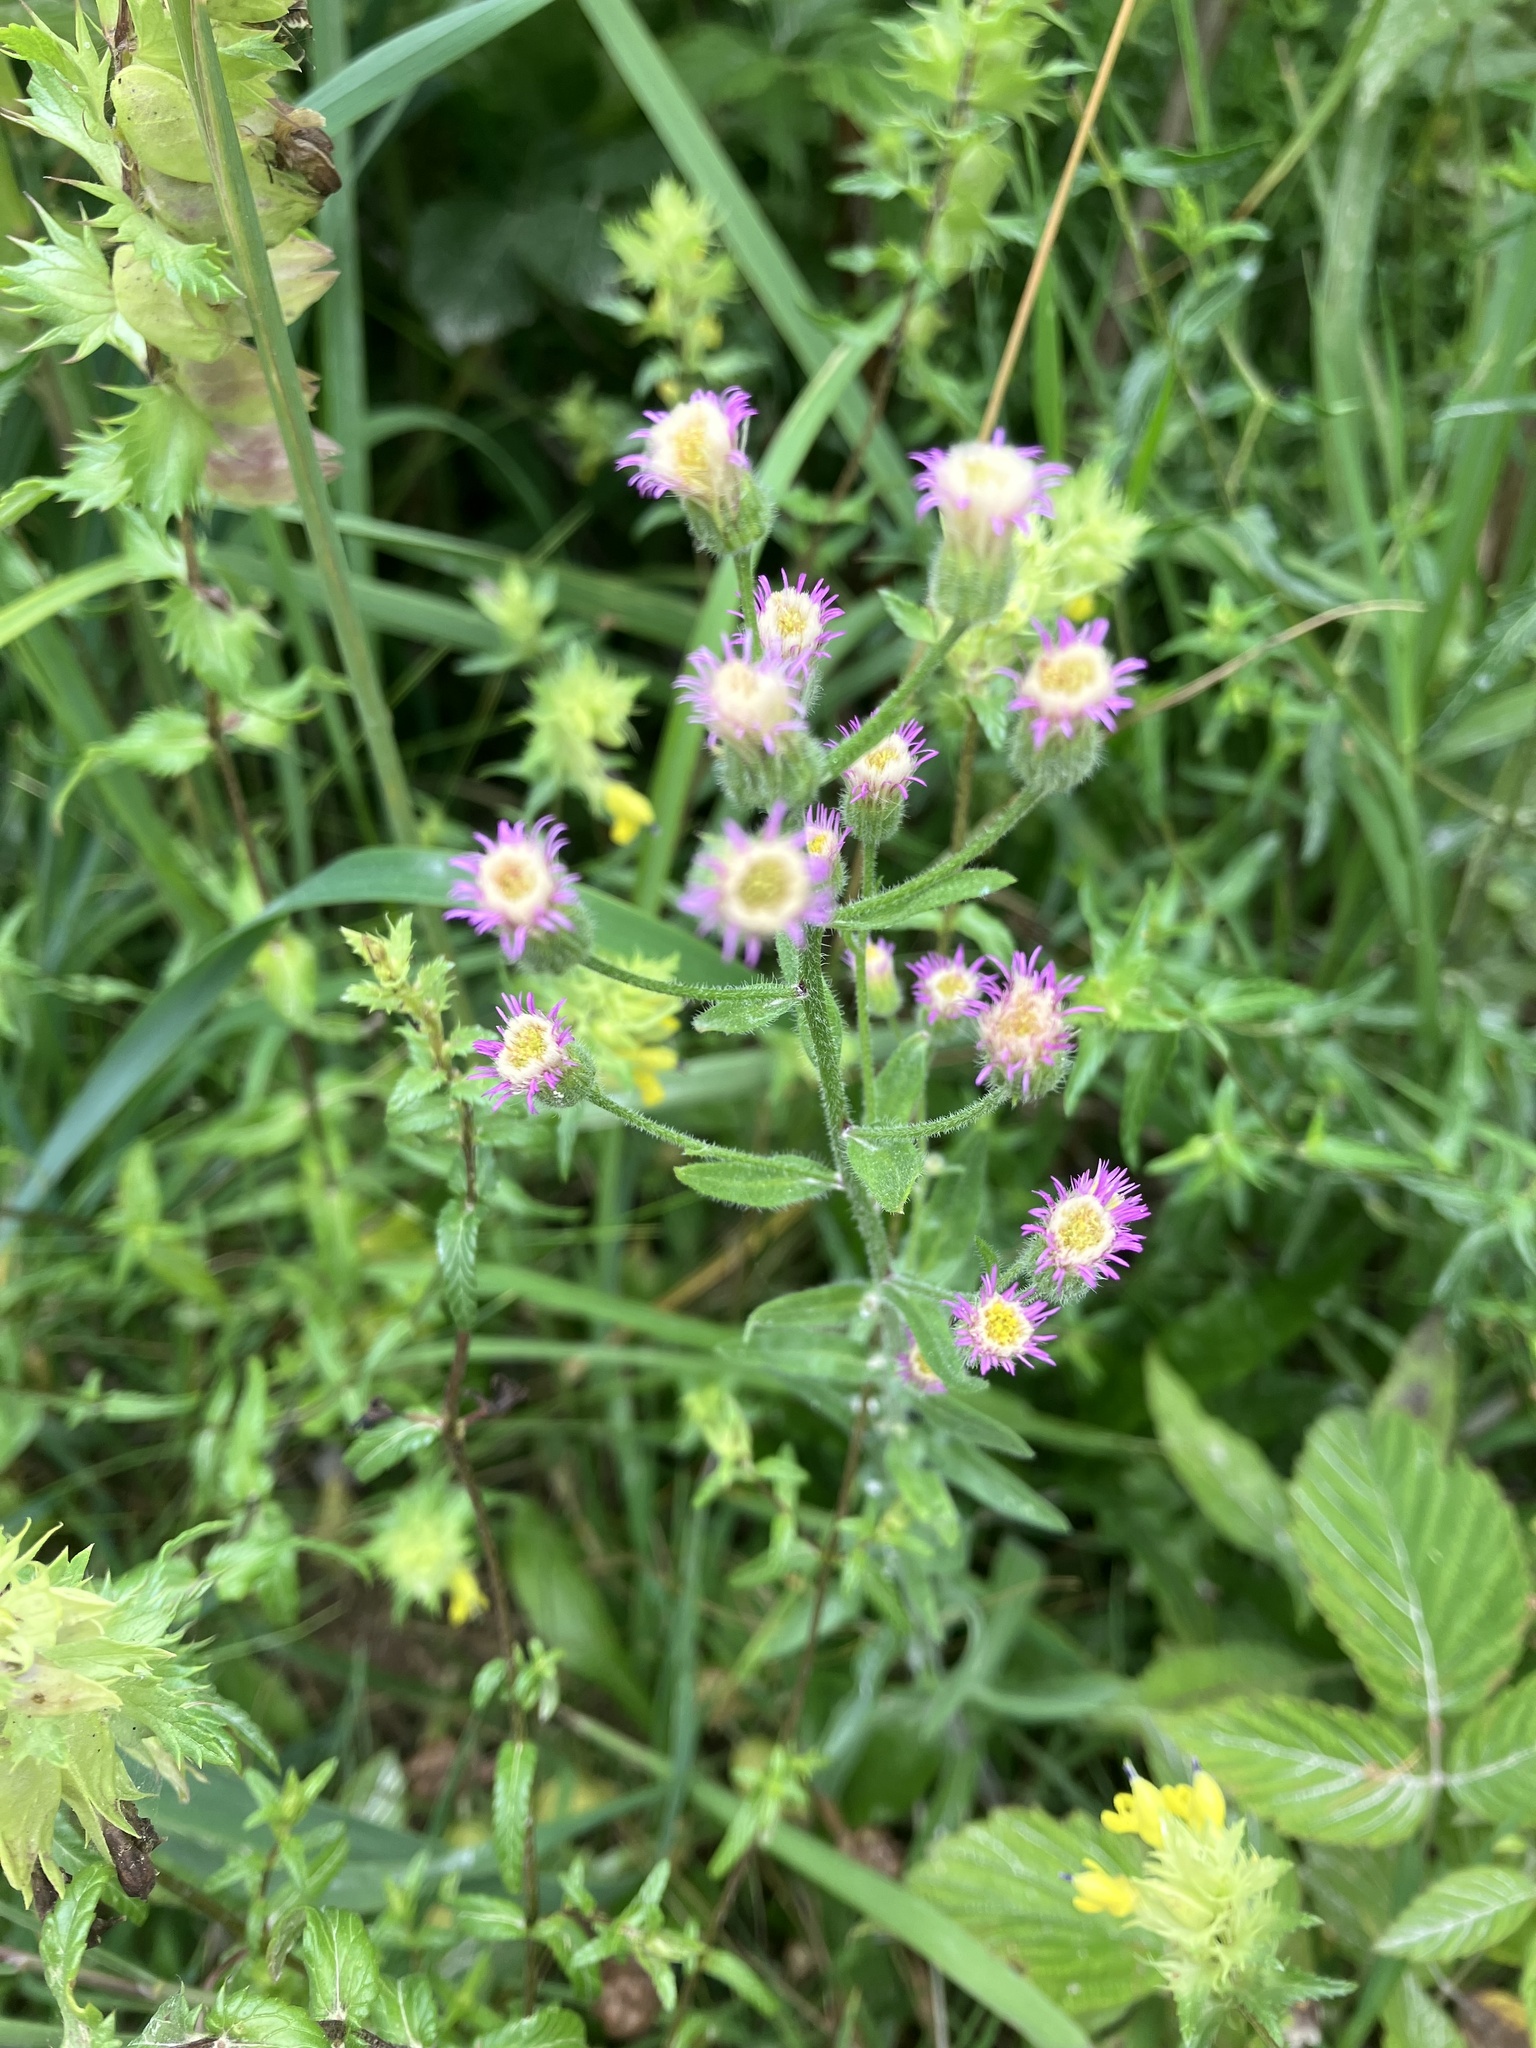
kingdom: Plantae
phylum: Tracheophyta
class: Magnoliopsida
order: Asterales
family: Asteraceae
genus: Erigeron
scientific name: Erigeron acris
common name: Blue fleabane
